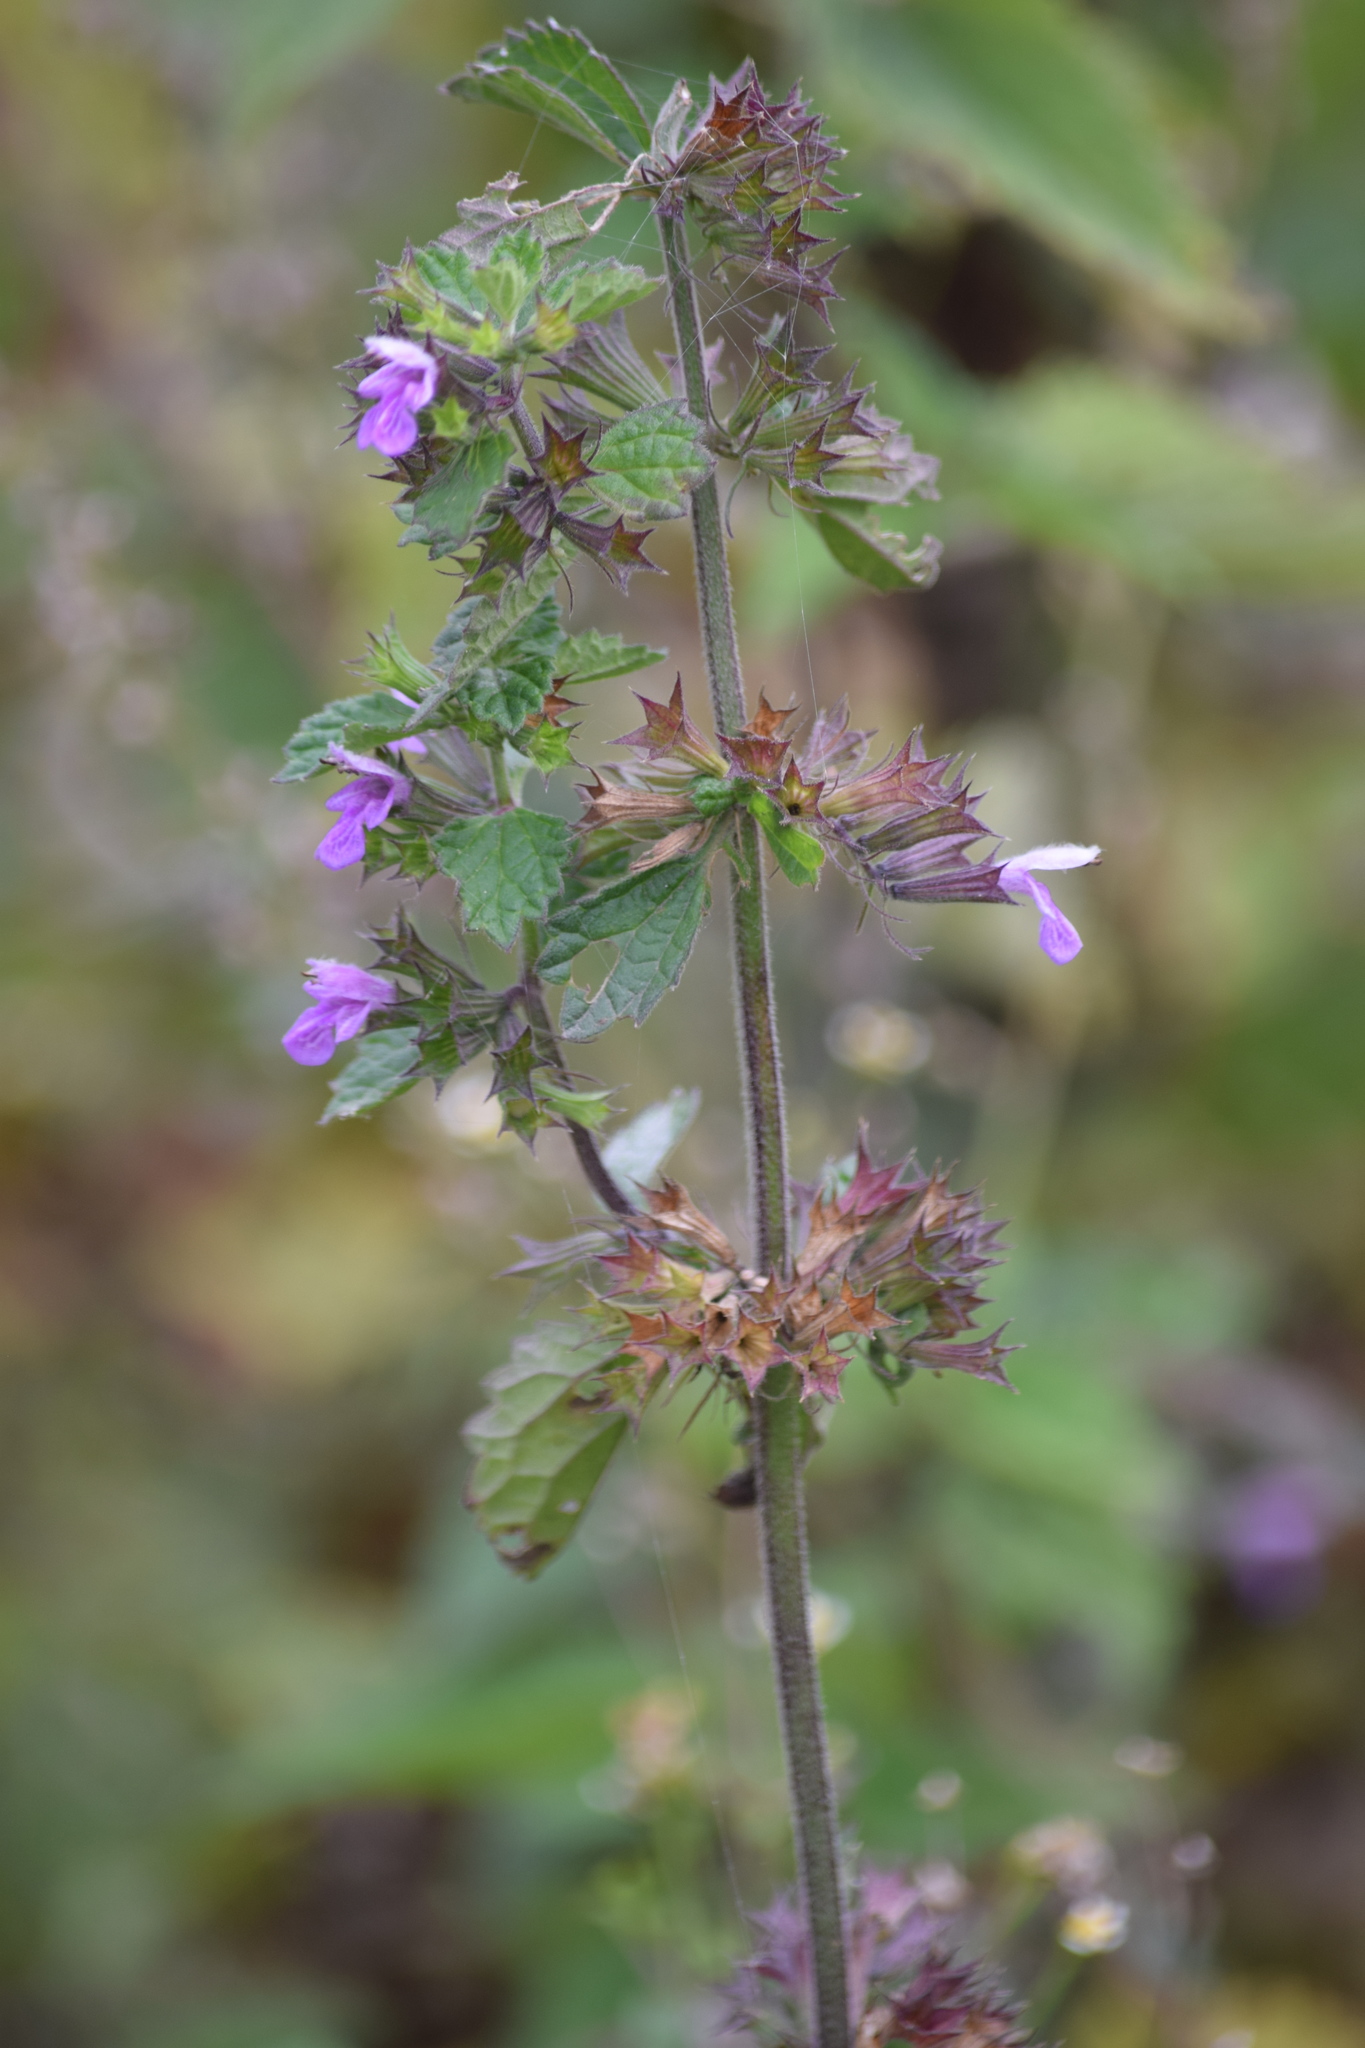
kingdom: Plantae
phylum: Tracheophyta
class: Magnoliopsida
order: Lamiales
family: Lamiaceae
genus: Ballota
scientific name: Ballota nigra
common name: Black horehound
